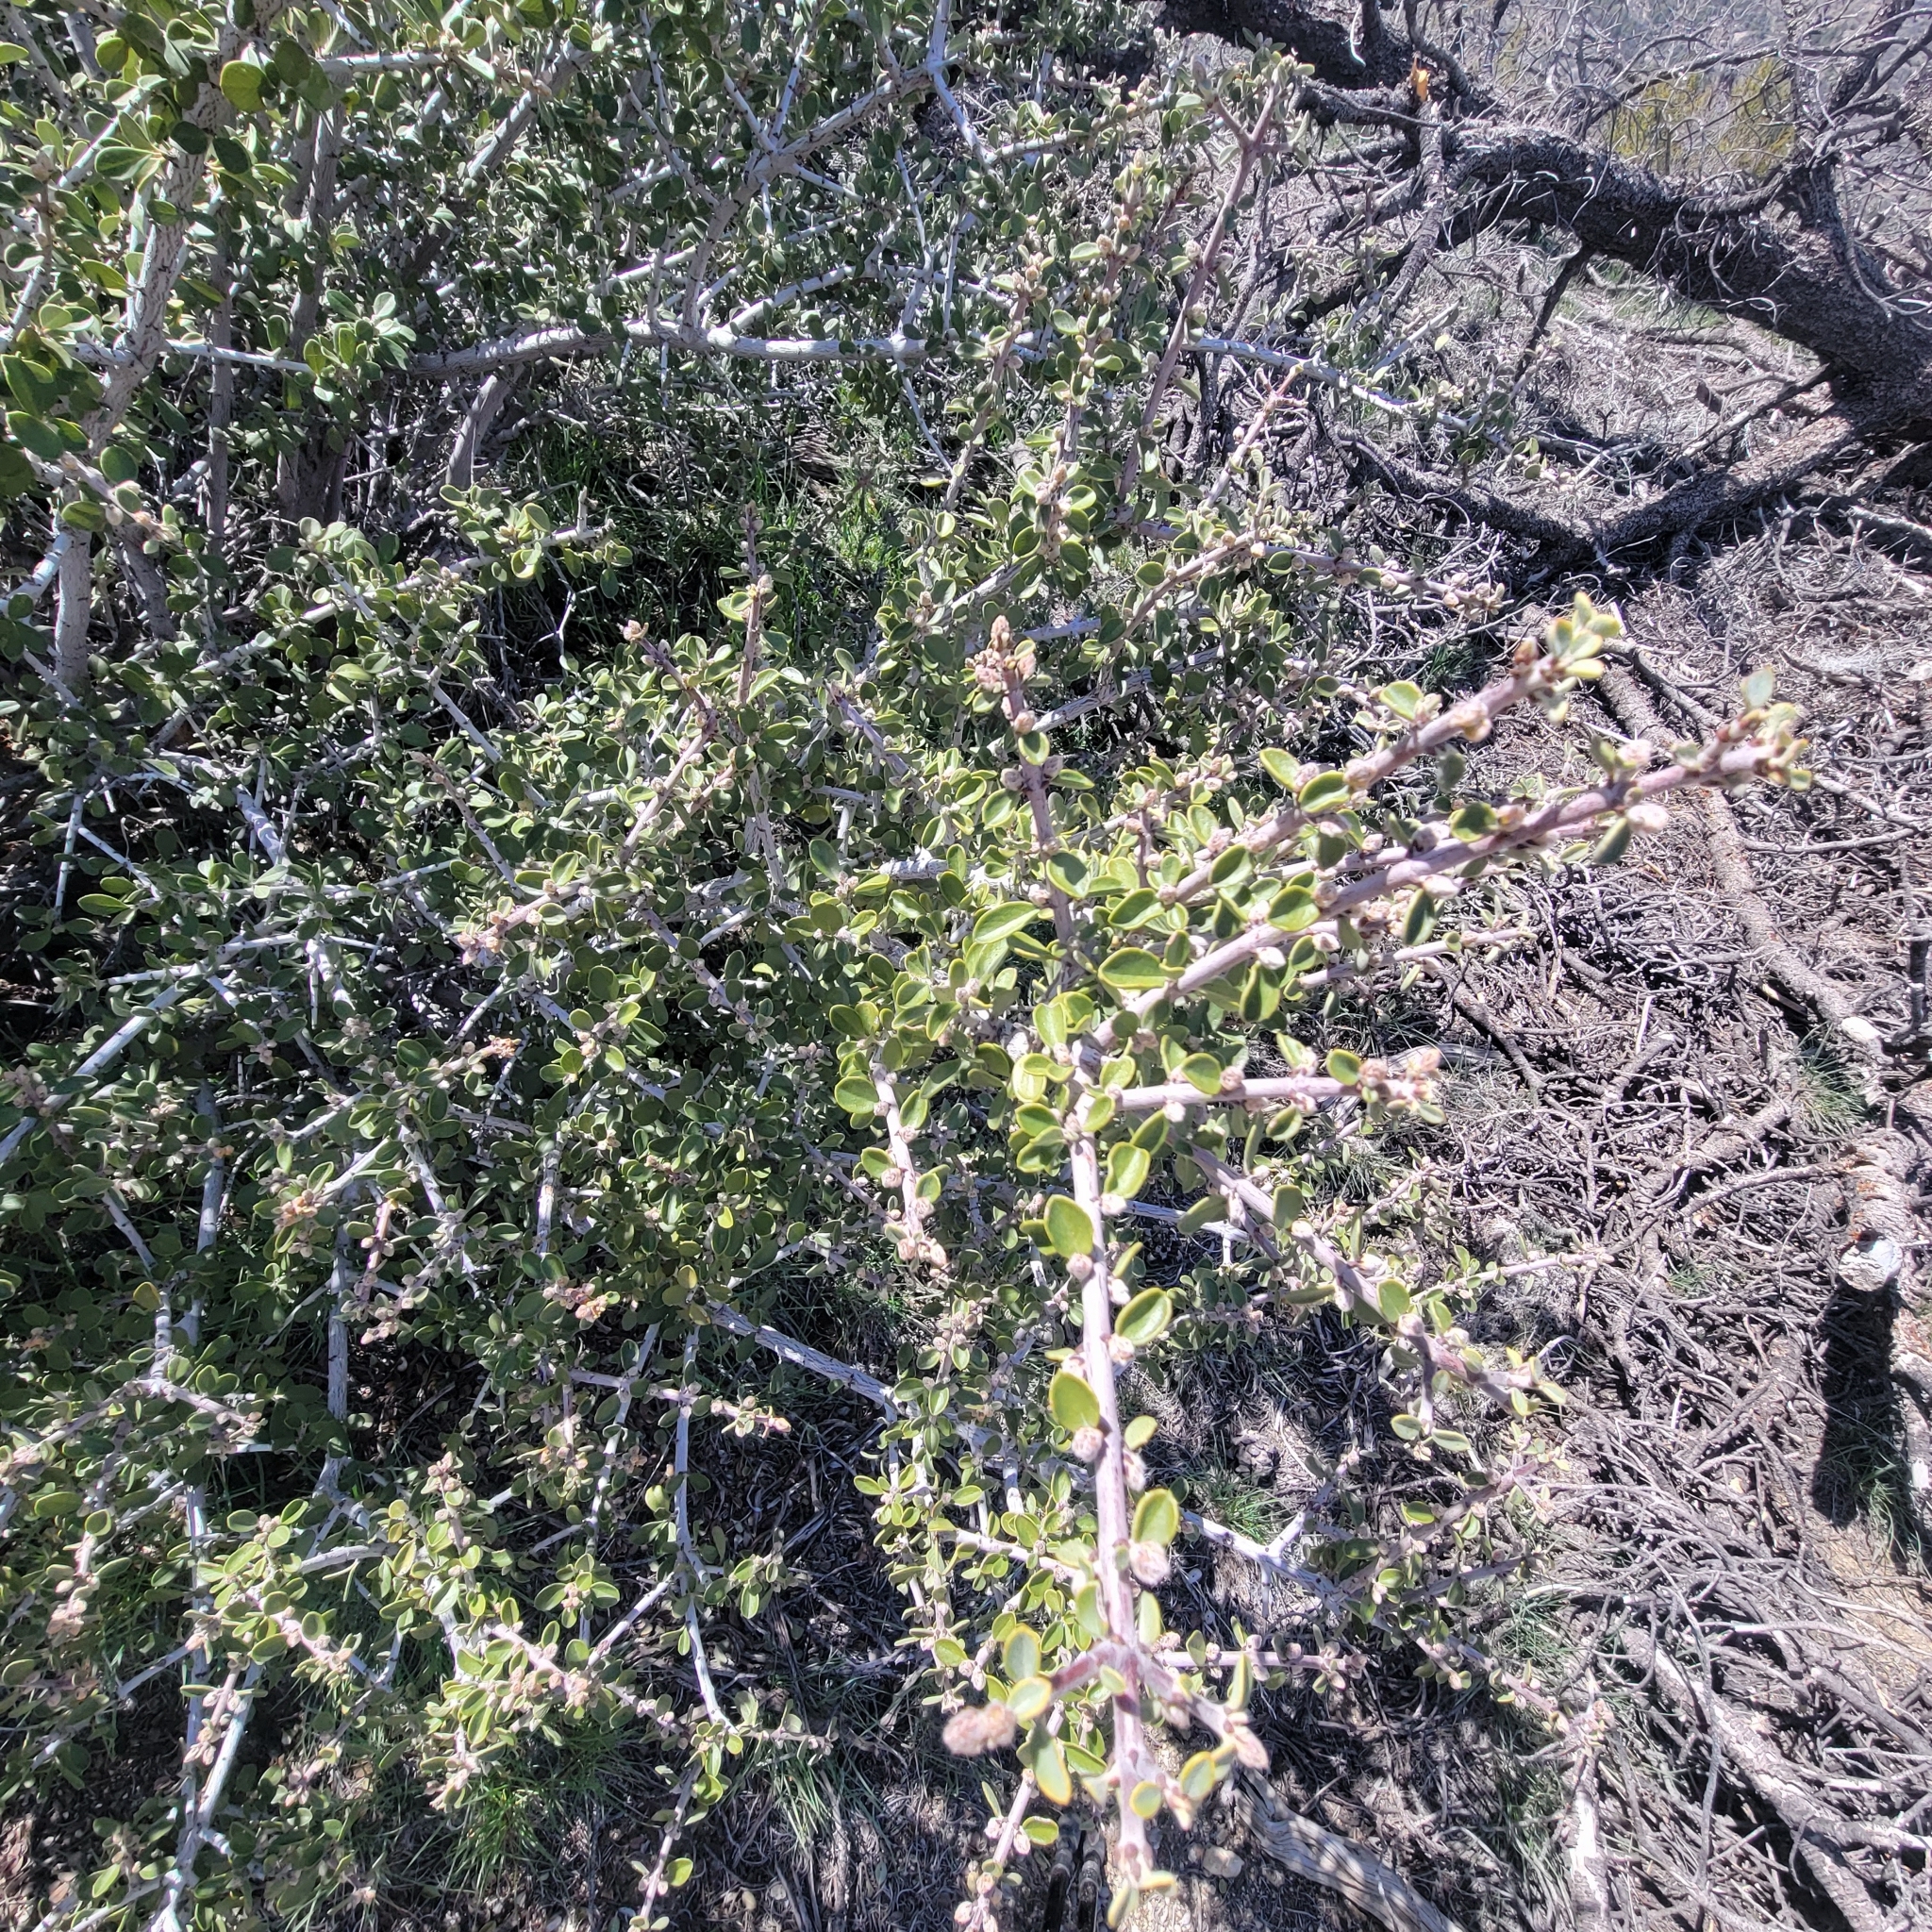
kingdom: Plantae
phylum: Tracheophyta
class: Magnoliopsida
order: Rosales
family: Rhamnaceae
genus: Ceanothus
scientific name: Ceanothus pauciflorus
